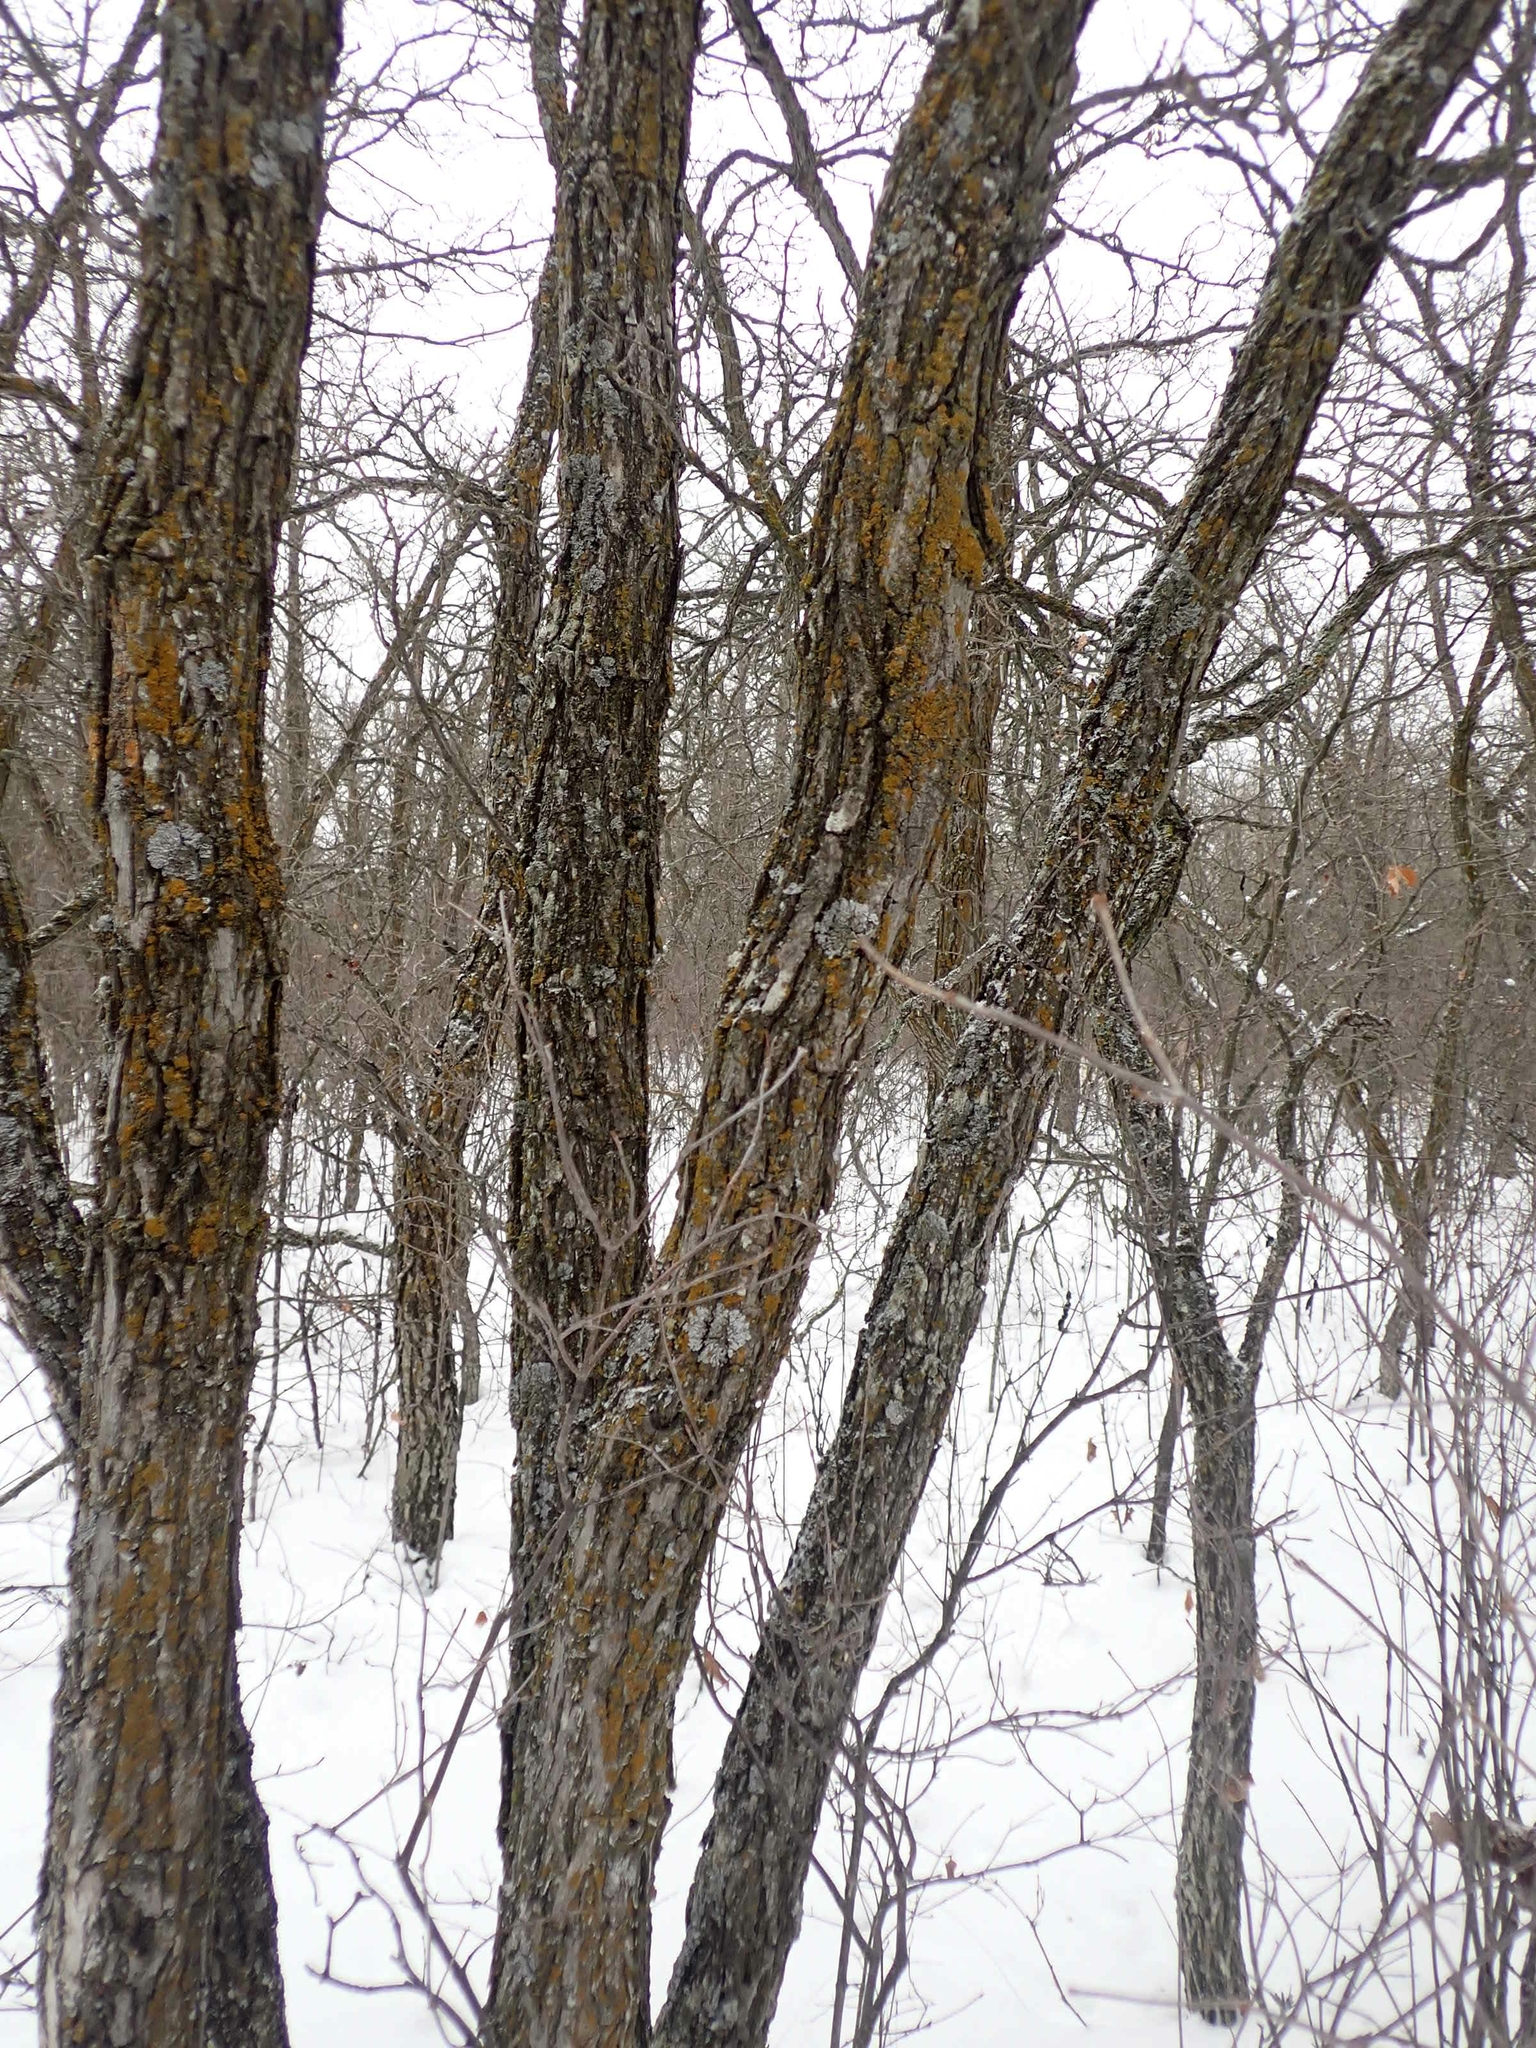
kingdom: Plantae
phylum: Tracheophyta
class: Magnoliopsida
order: Fagales
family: Fagaceae
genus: Quercus
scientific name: Quercus macrocarpa
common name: Bur oak
